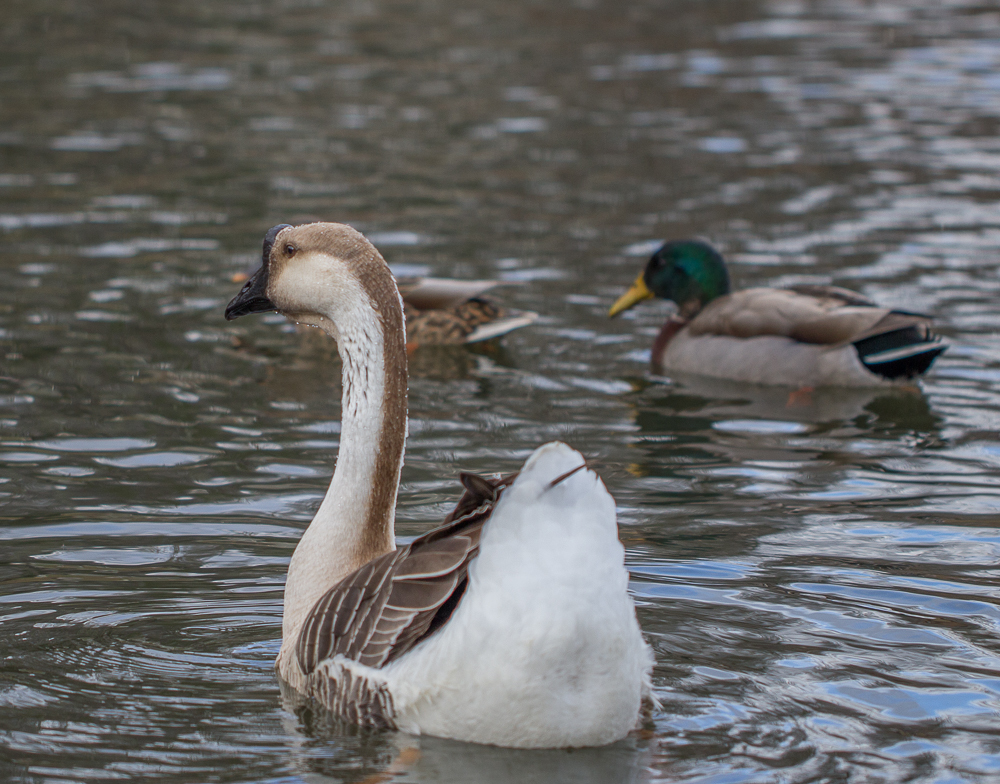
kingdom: Animalia
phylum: Chordata
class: Aves
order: Anseriformes
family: Anatidae
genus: Anser
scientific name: Anser cygnoides
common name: Swan goose
